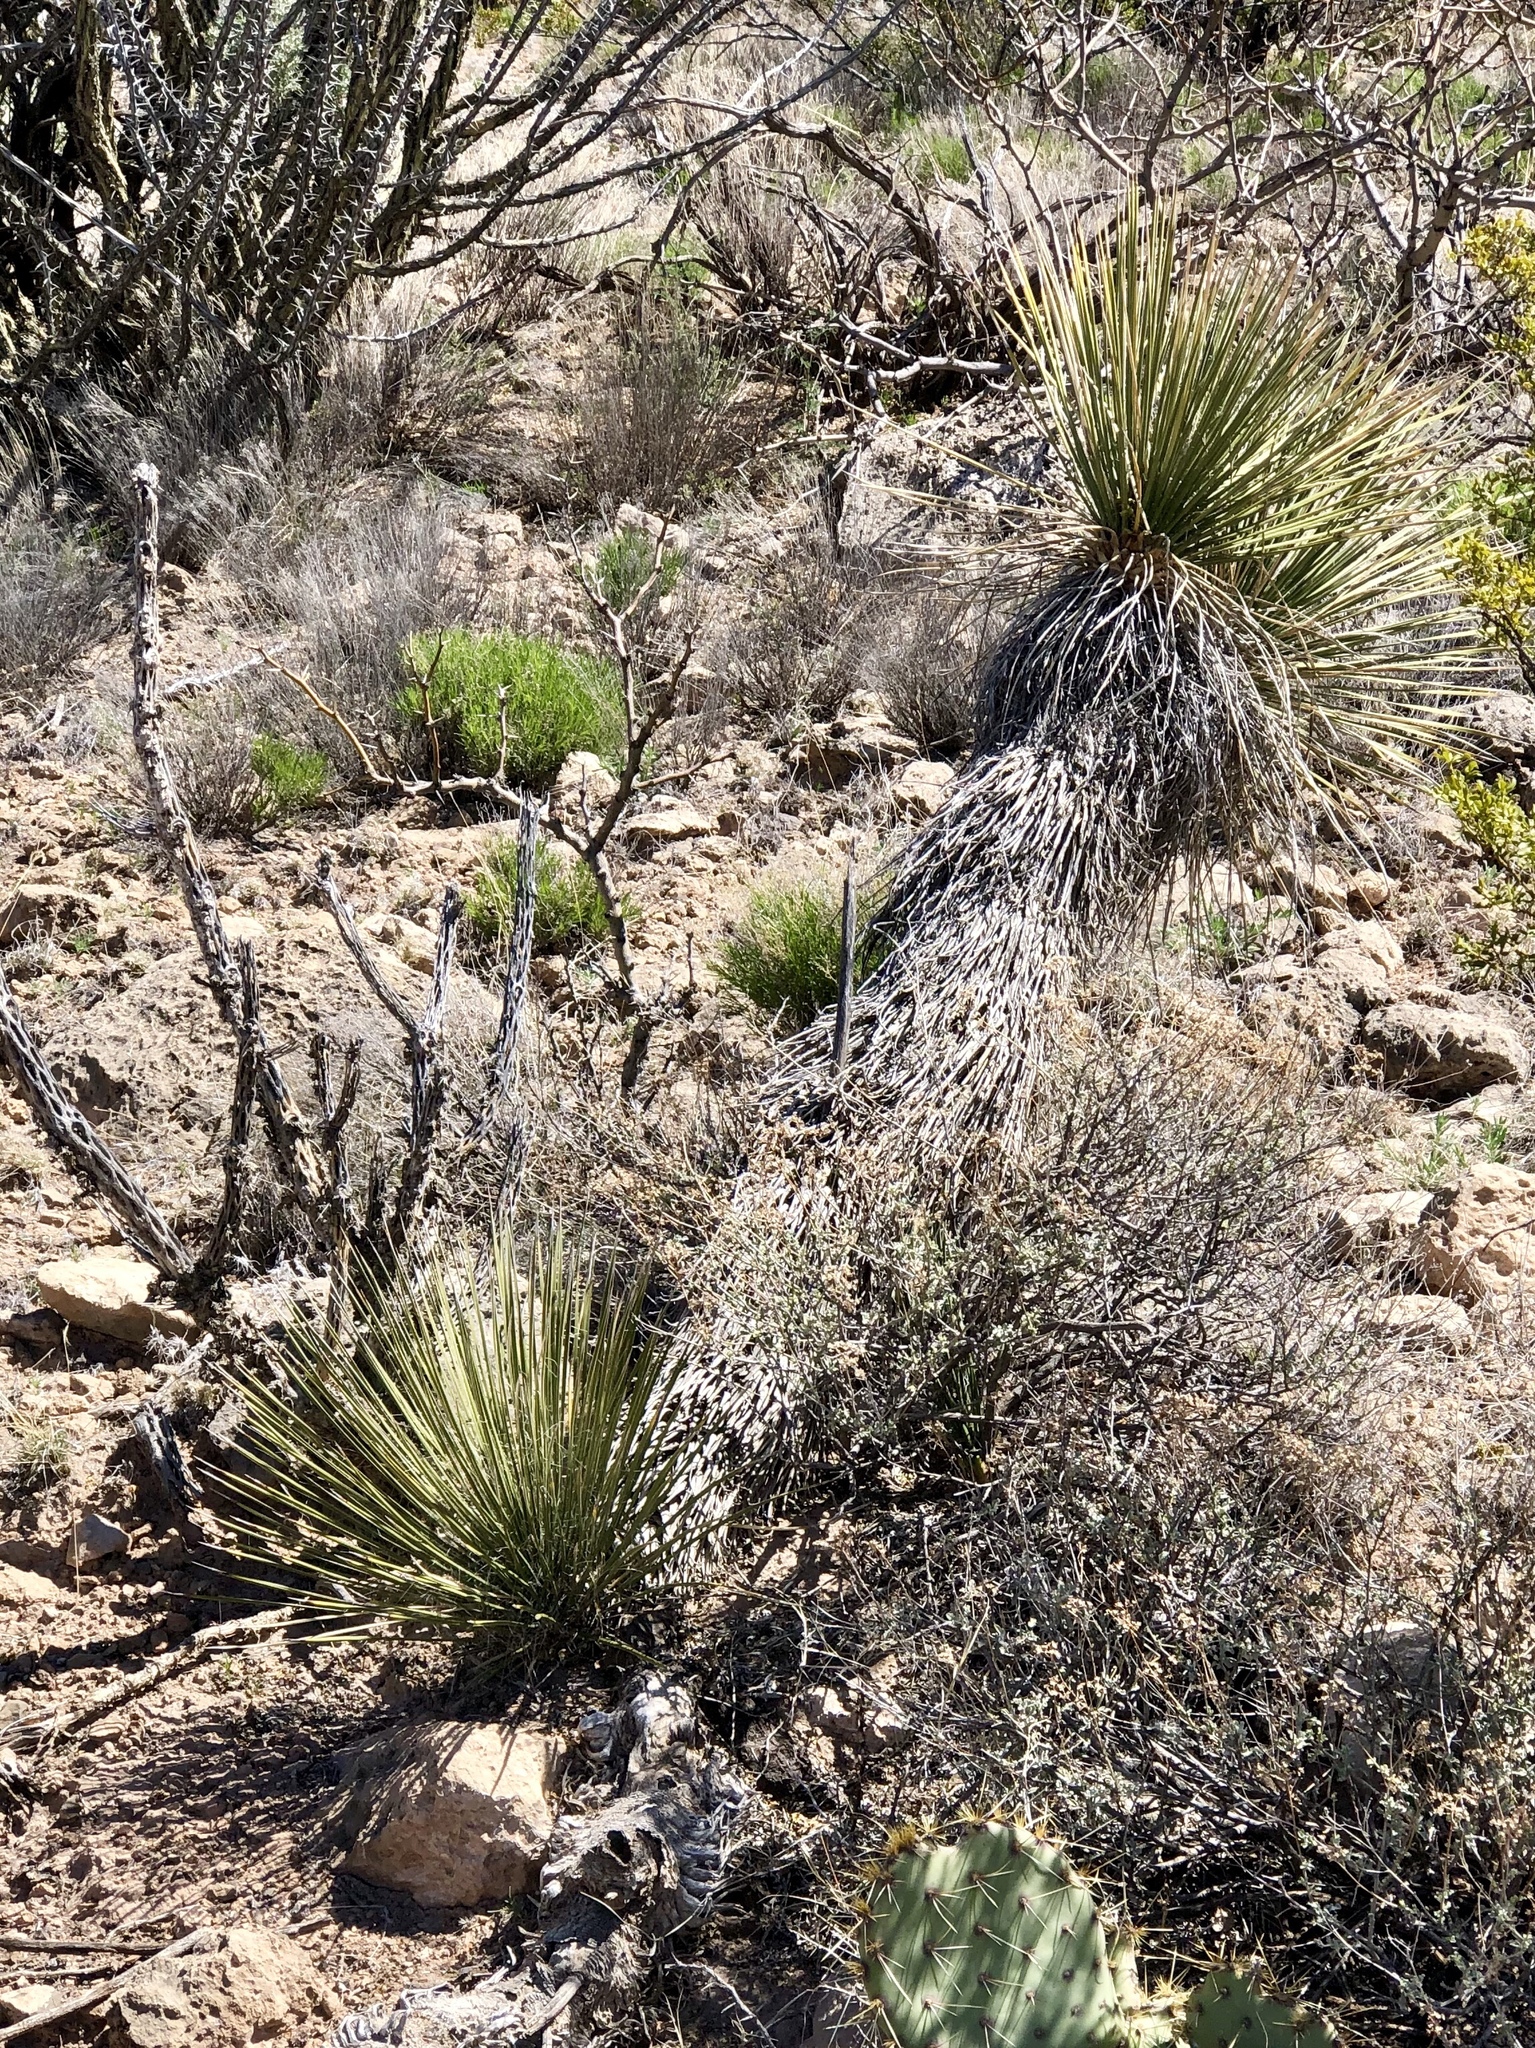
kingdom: Plantae
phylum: Tracheophyta
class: Liliopsida
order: Asparagales
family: Asparagaceae
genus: Yucca
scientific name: Yucca elata
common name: Palmella
